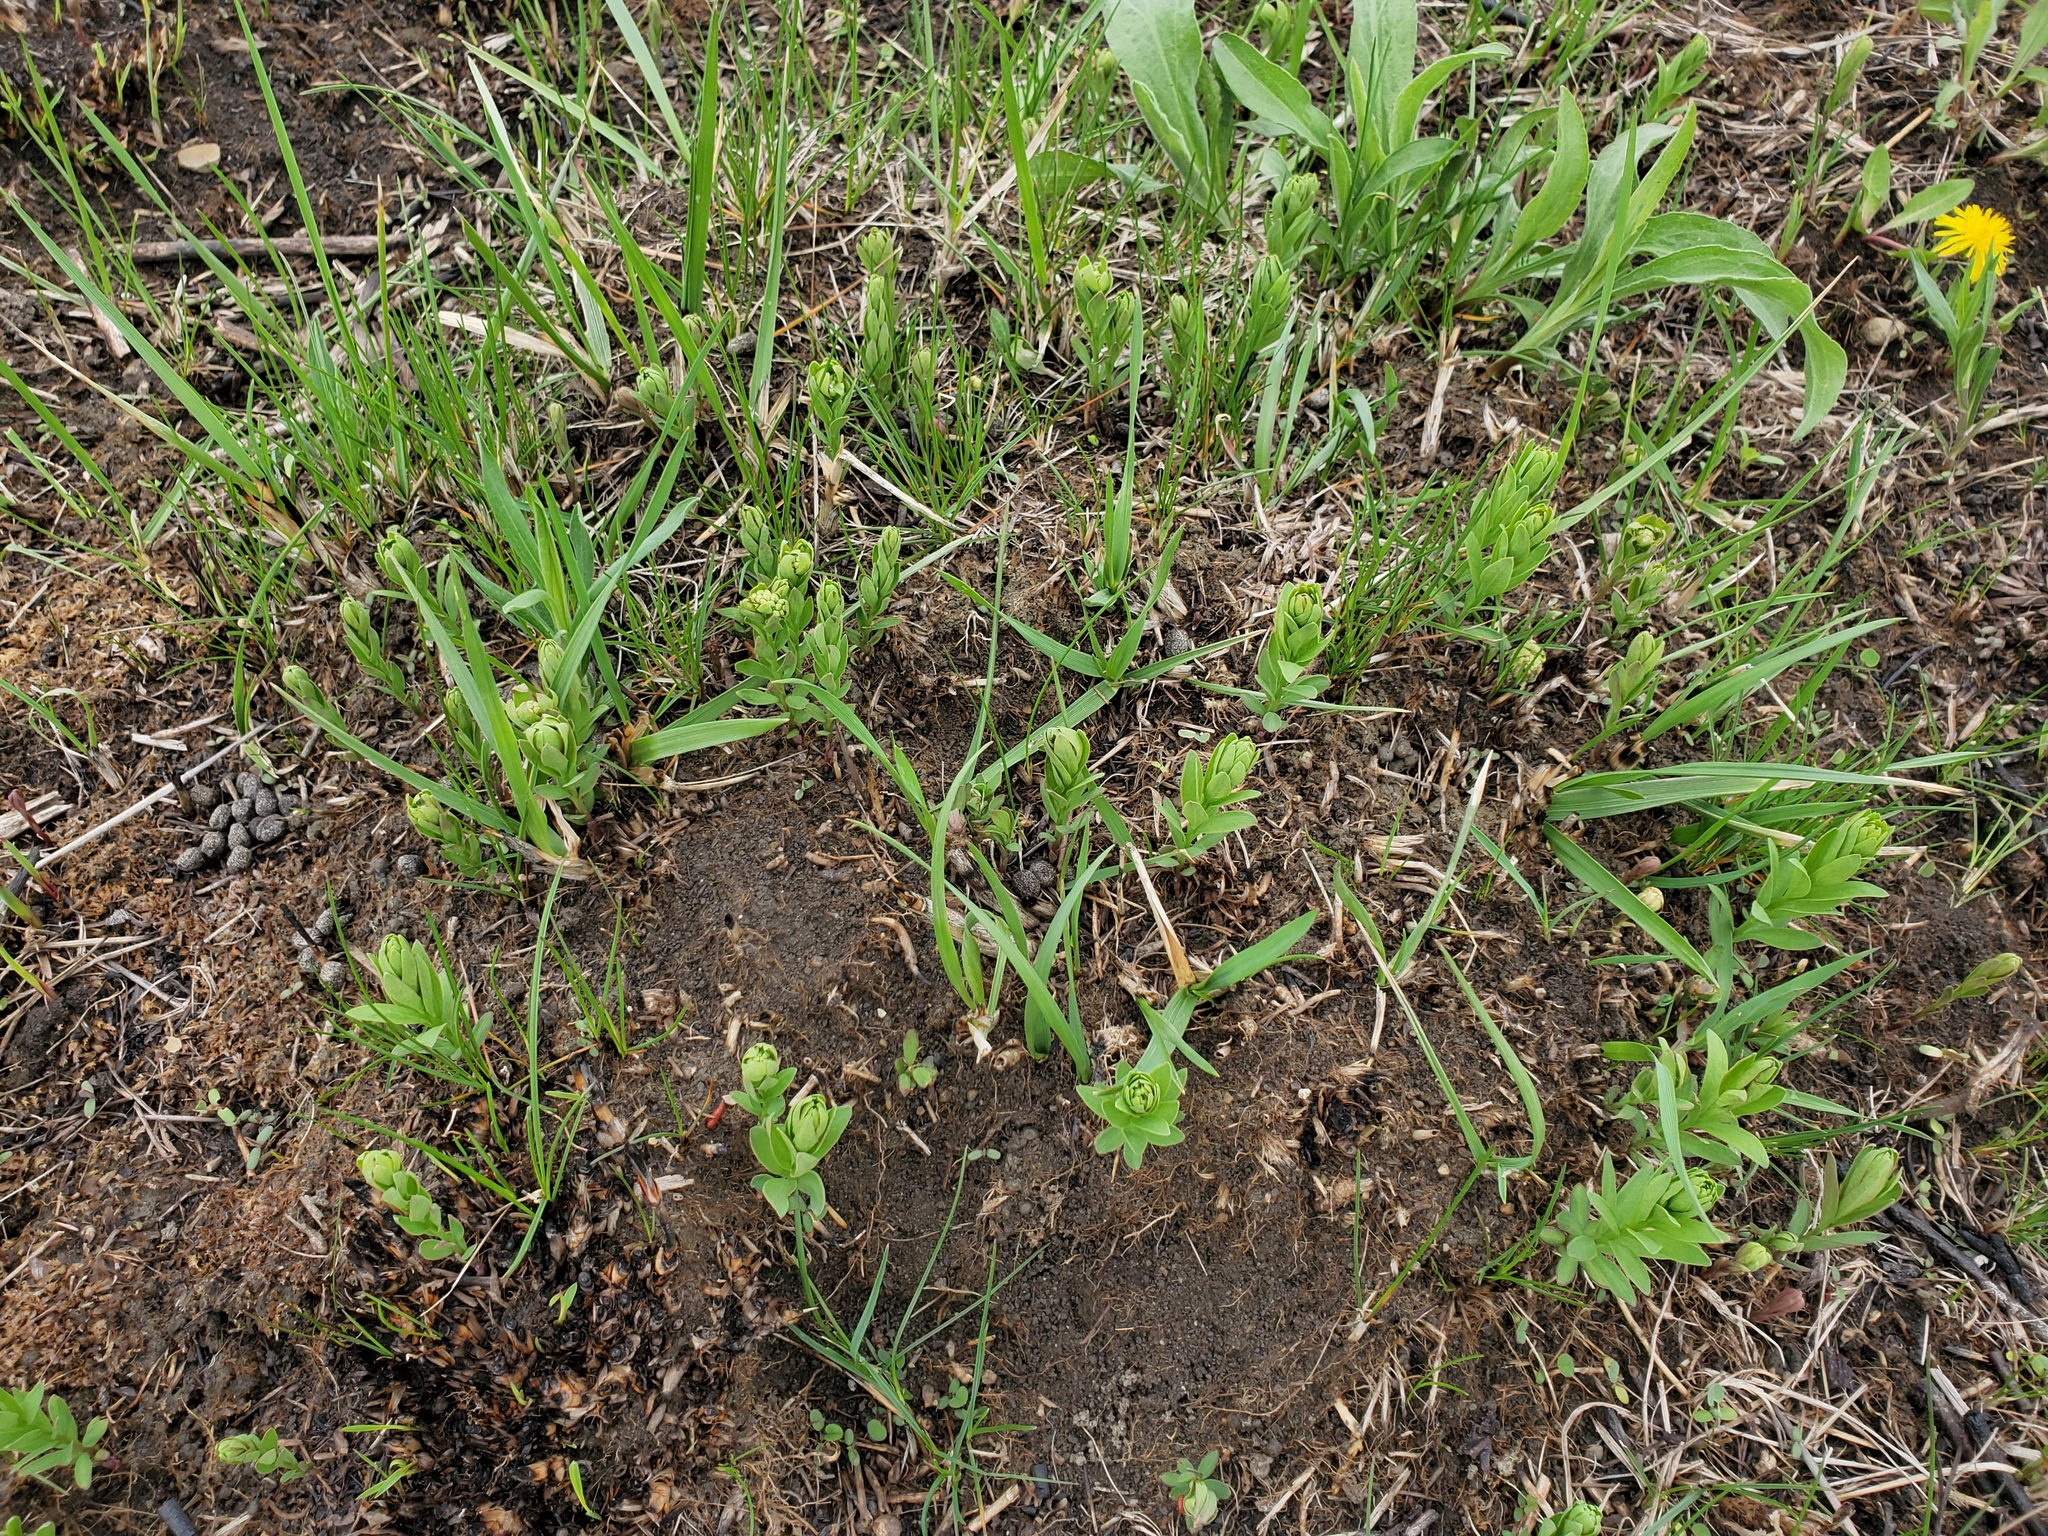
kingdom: Plantae
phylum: Tracheophyta
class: Magnoliopsida
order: Santalales
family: Comandraceae
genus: Comandra
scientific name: Comandra umbellata
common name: Bastard toadflax
